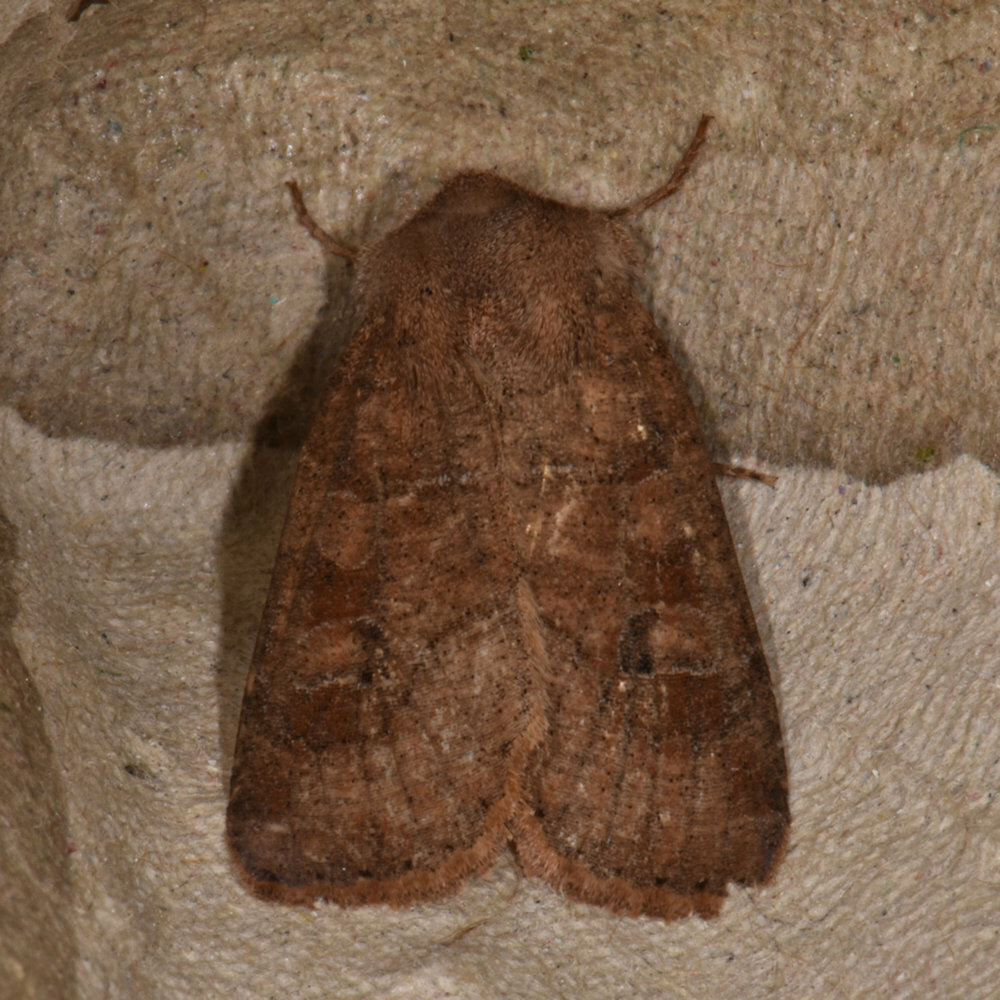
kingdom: Animalia
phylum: Arthropoda
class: Insecta
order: Lepidoptera
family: Noctuidae
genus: Crocigrapha
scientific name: Crocigrapha normani
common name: Norman's quaker
